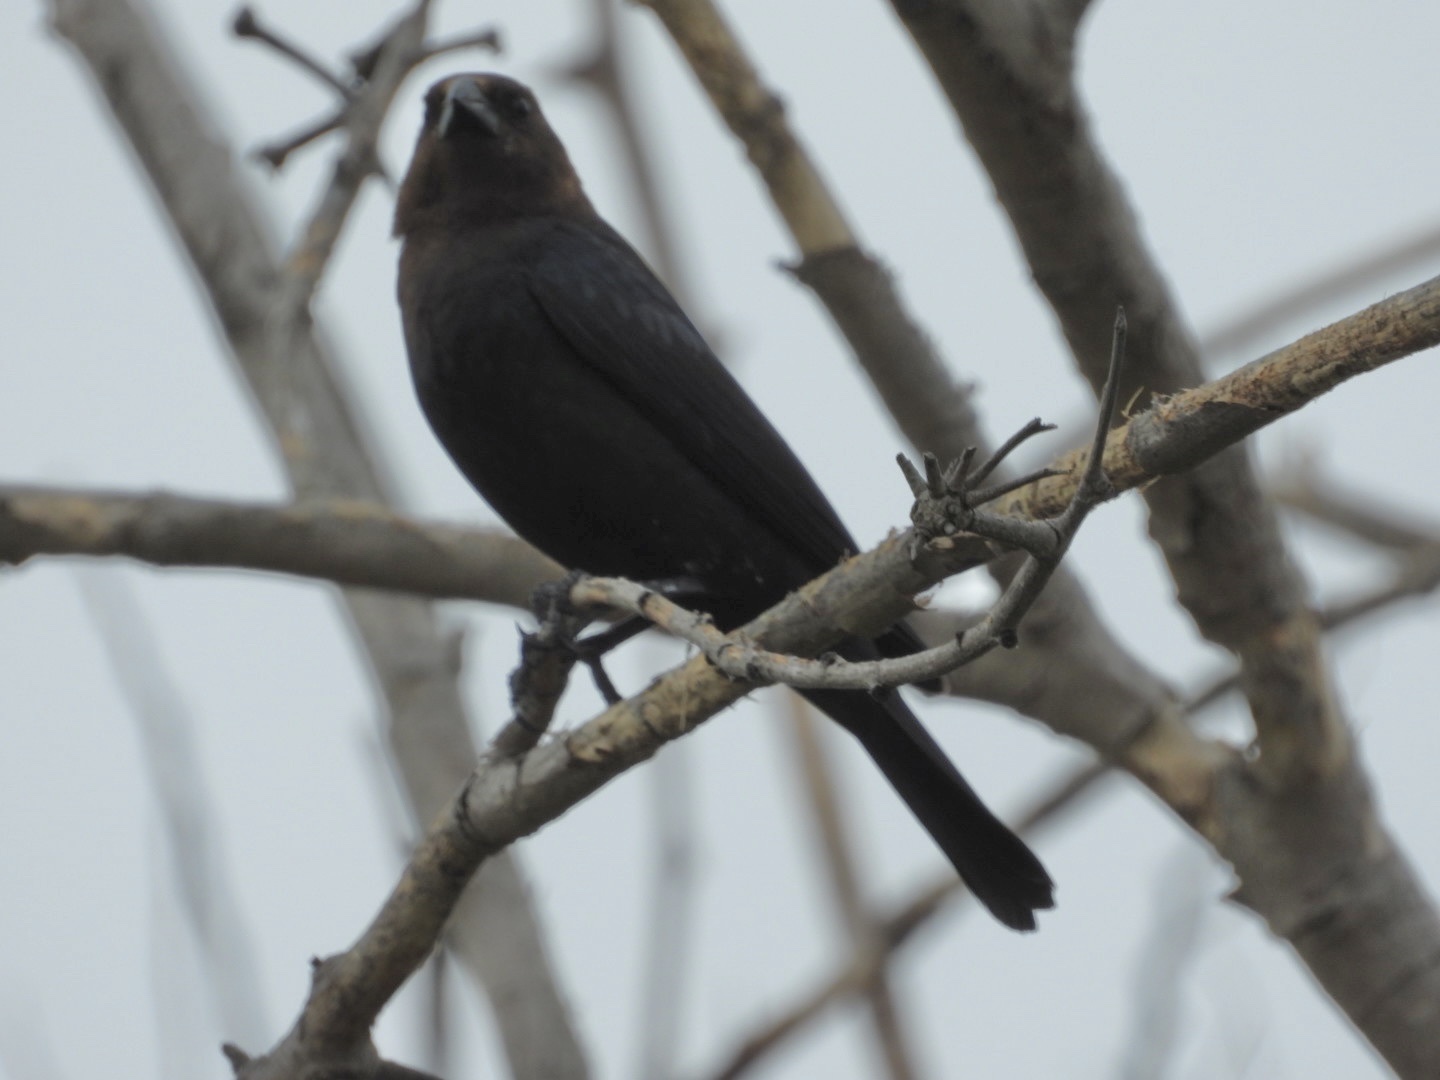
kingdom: Animalia
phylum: Chordata
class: Aves
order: Passeriformes
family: Icteridae
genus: Molothrus
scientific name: Molothrus ater
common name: Brown-headed cowbird
